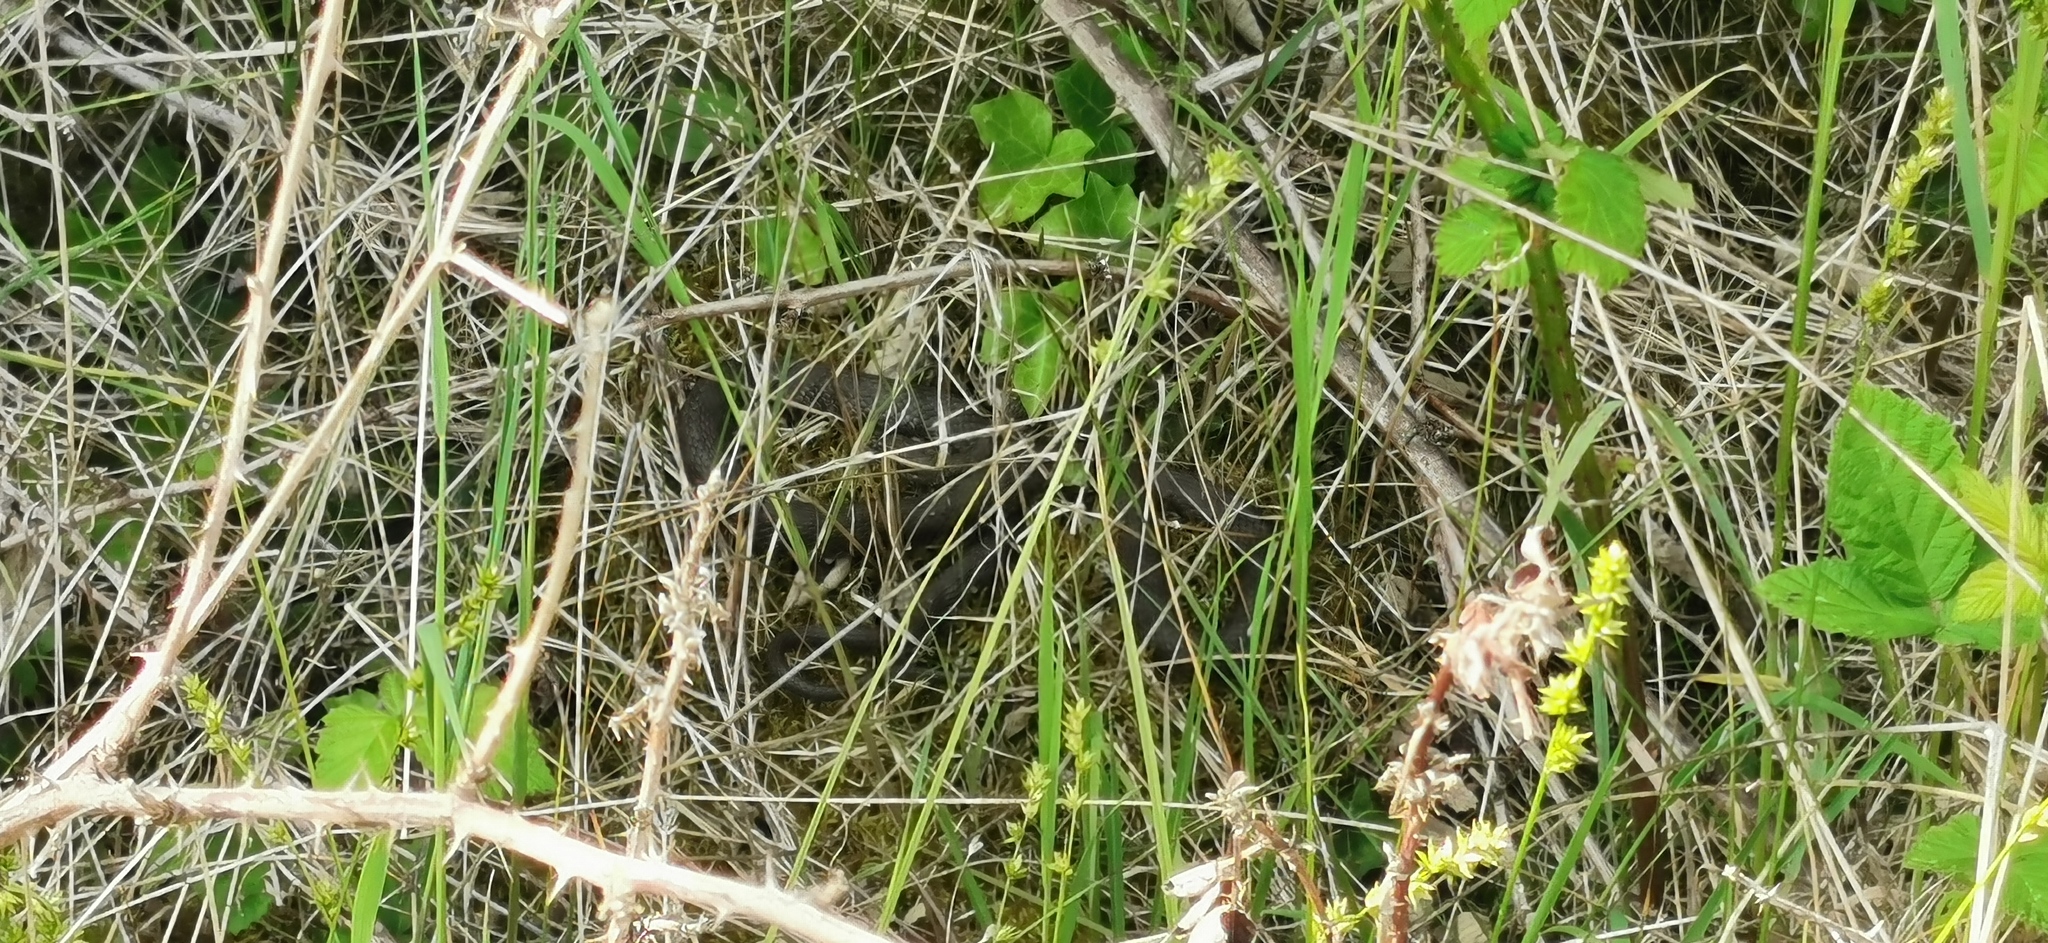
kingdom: Animalia
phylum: Chordata
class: Squamata
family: Colubridae
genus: Natrix
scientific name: Natrix tessellata
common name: Dice snake
